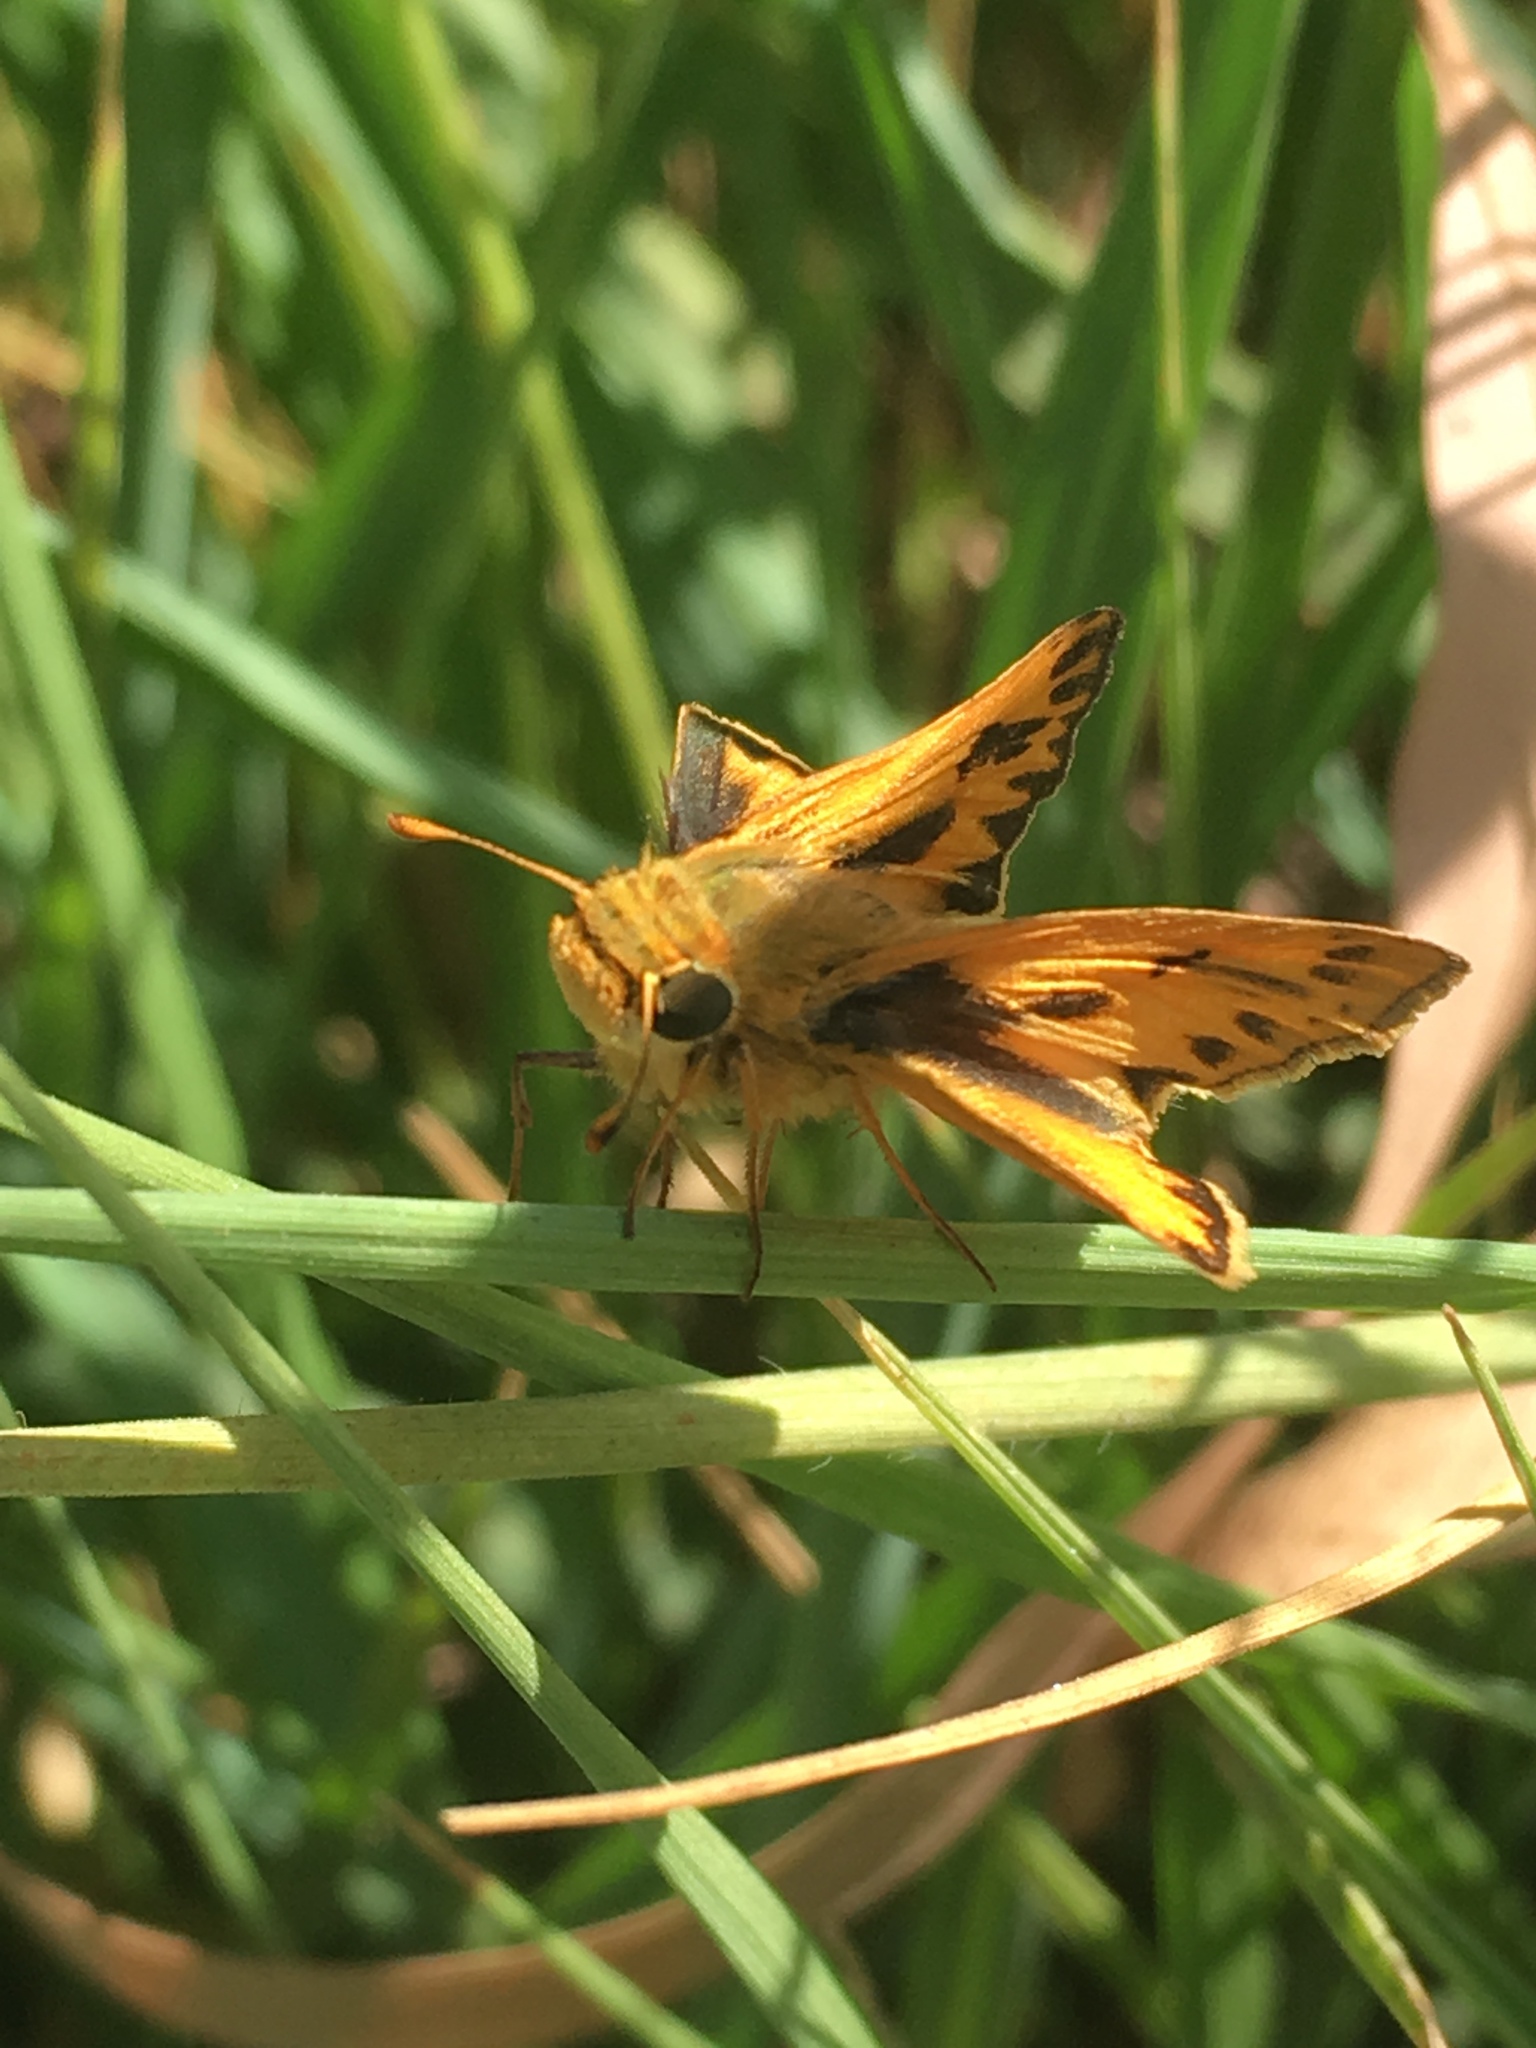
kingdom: Animalia
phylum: Arthropoda
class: Insecta
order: Lepidoptera
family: Hesperiidae
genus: Hylephila
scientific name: Hylephila phyleus
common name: Fiery skipper
